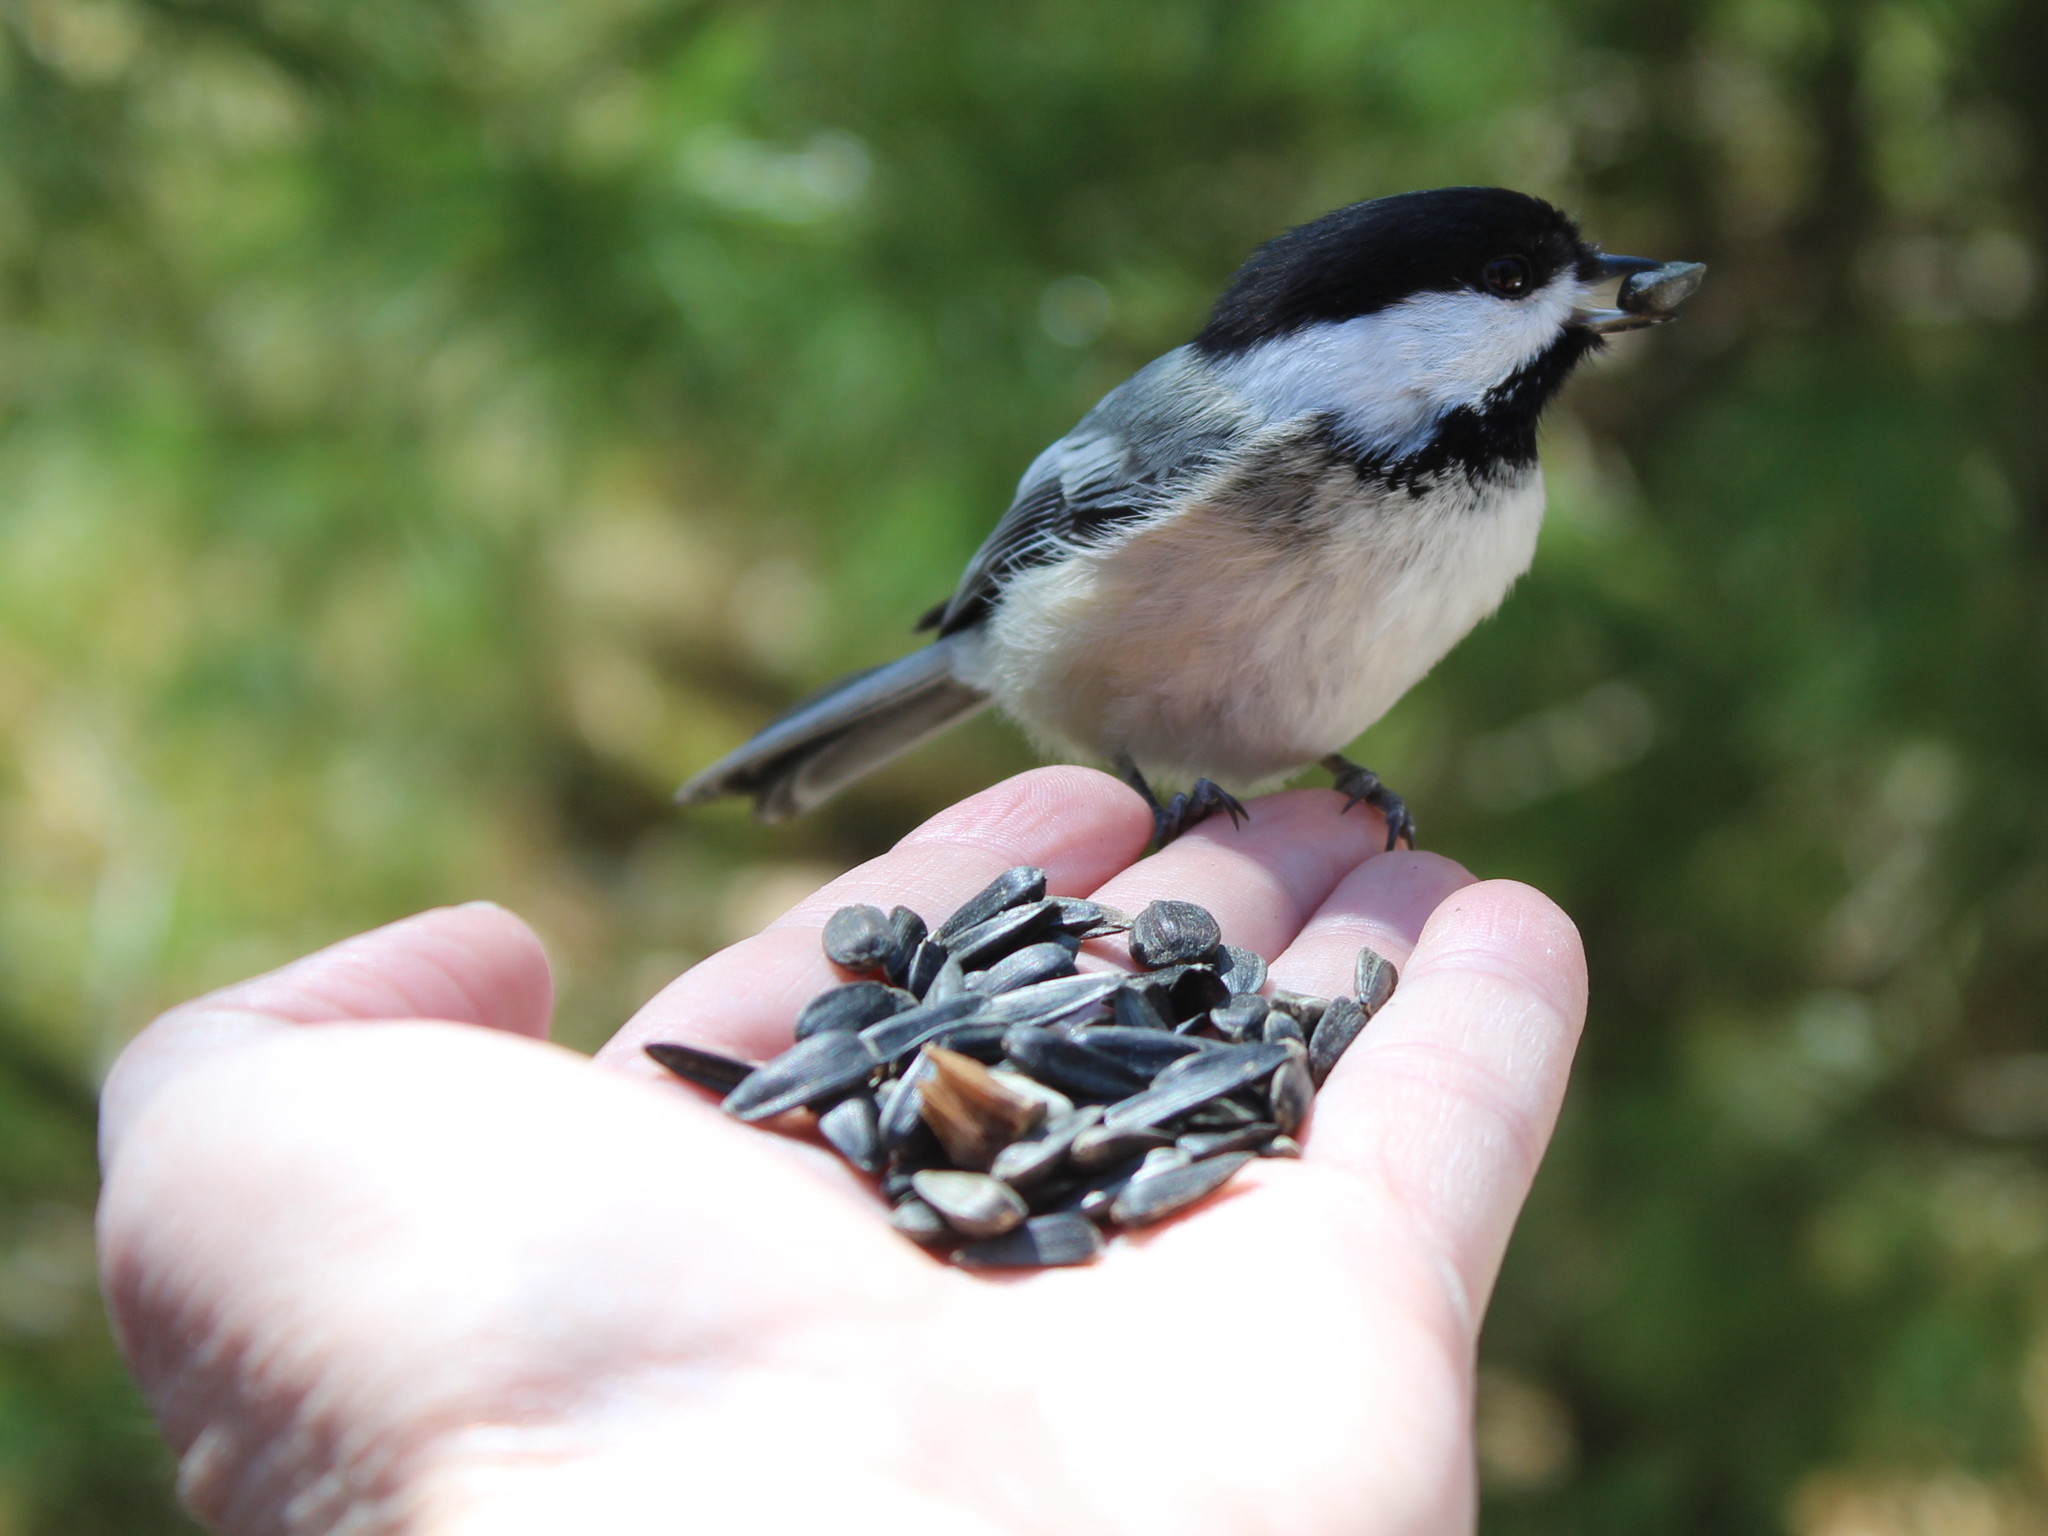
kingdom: Animalia
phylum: Chordata
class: Aves
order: Passeriformes
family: Paridae
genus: Poecile
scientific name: Poecile atricapillus
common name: Black-capped chickadee
